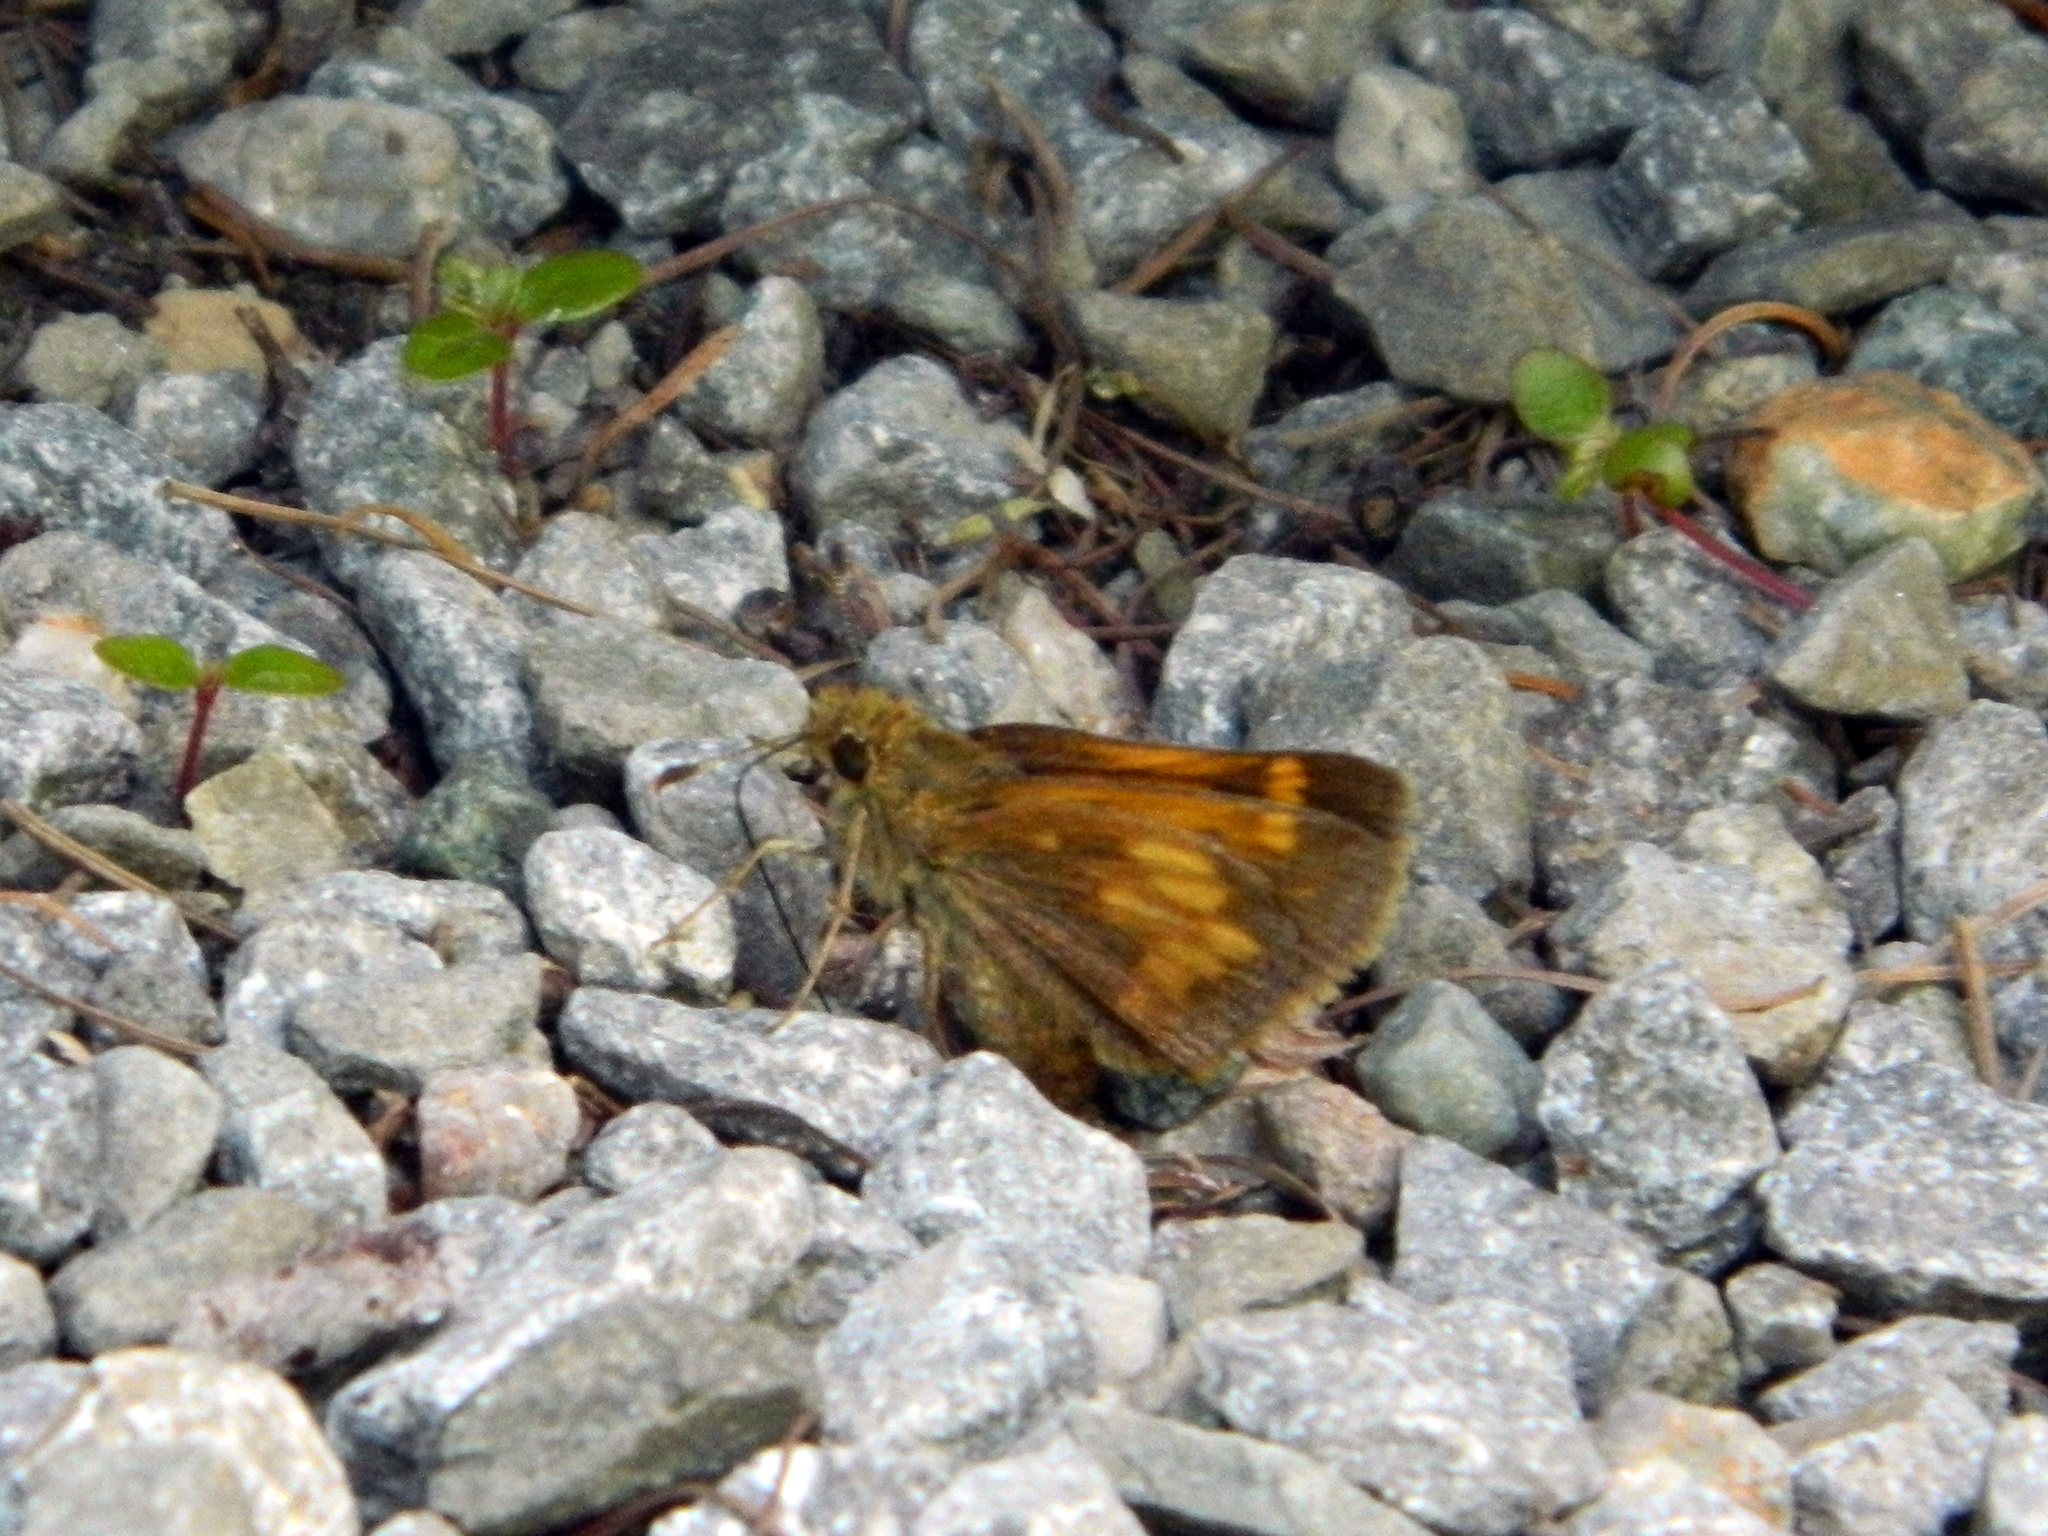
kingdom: Animalia
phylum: Arthropoda
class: Insecta
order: Lepidoptera
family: Hesperiidae
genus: Lon
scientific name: Lon hobomok
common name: Hobomok skipper
